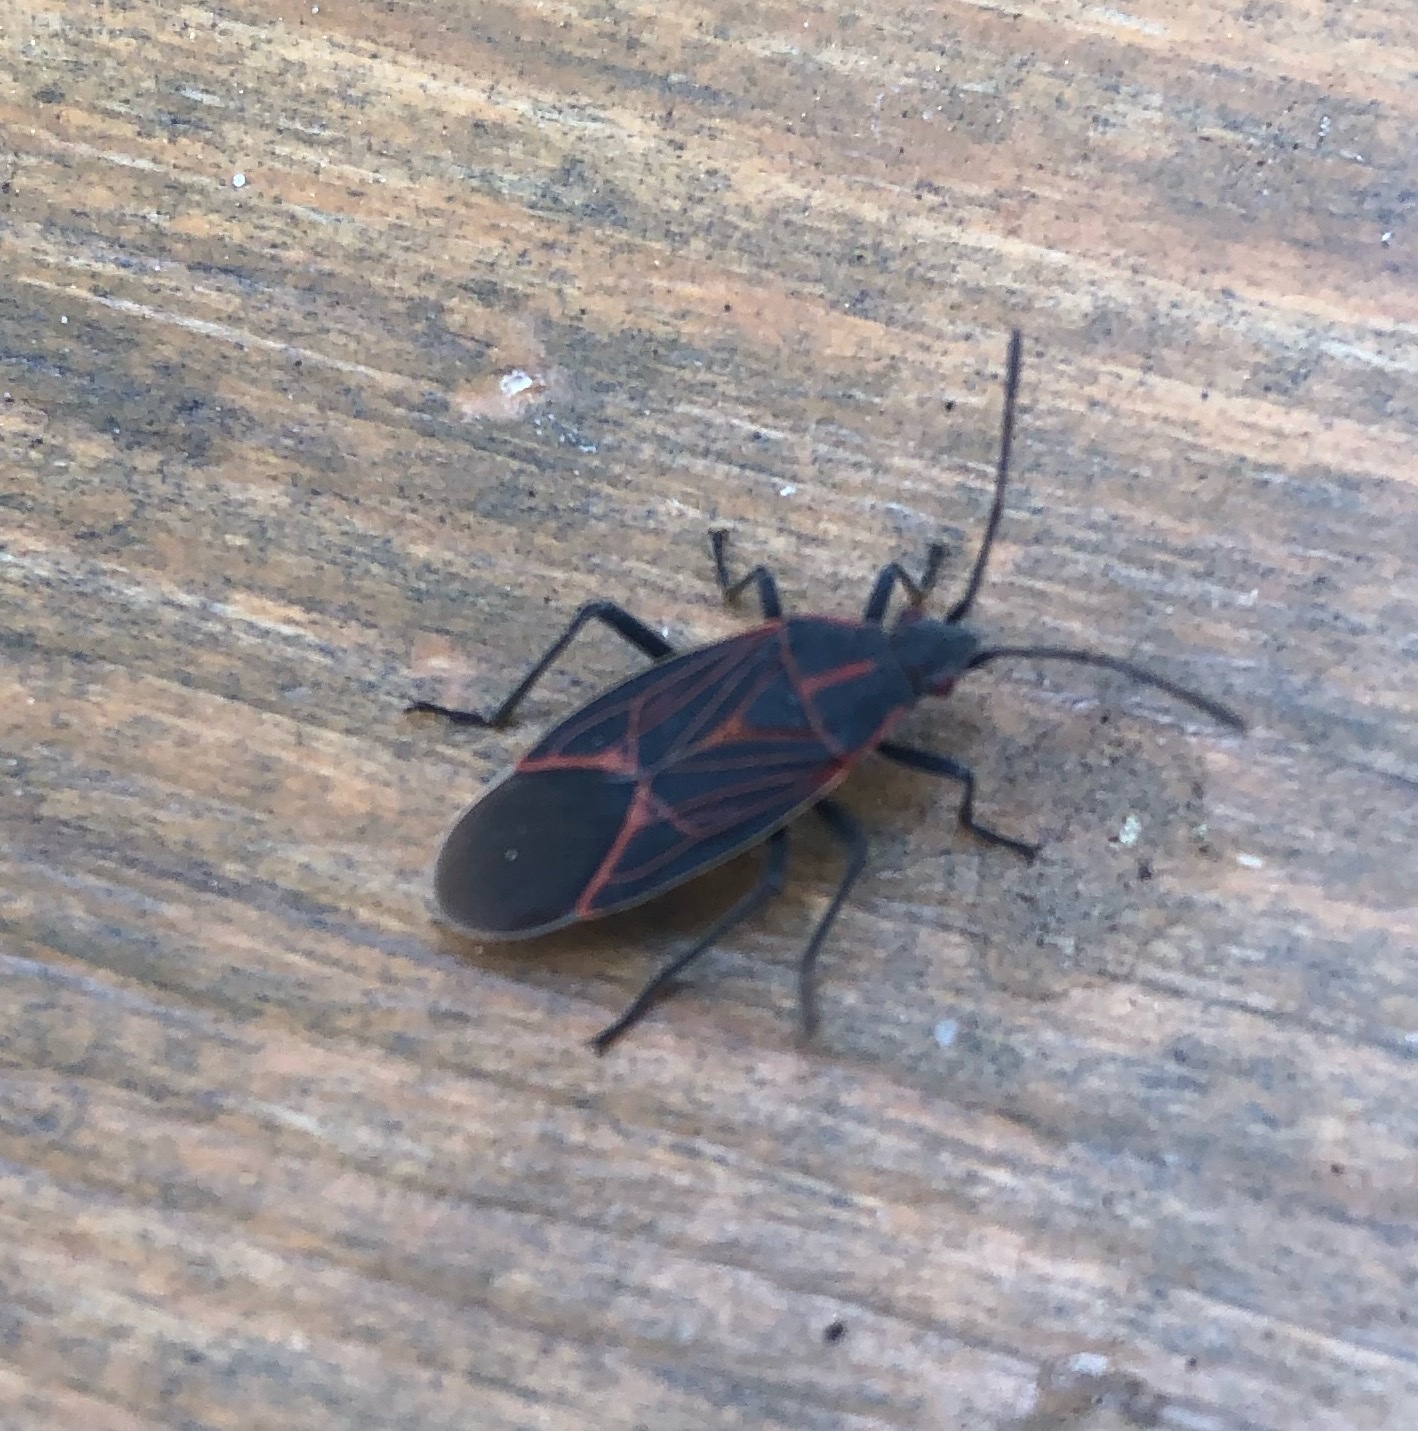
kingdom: Animalia
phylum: Arthropoda
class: Insecta
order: Hemiptera
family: Rhopalidae
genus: Boisea
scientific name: Boisea rubrolineata
